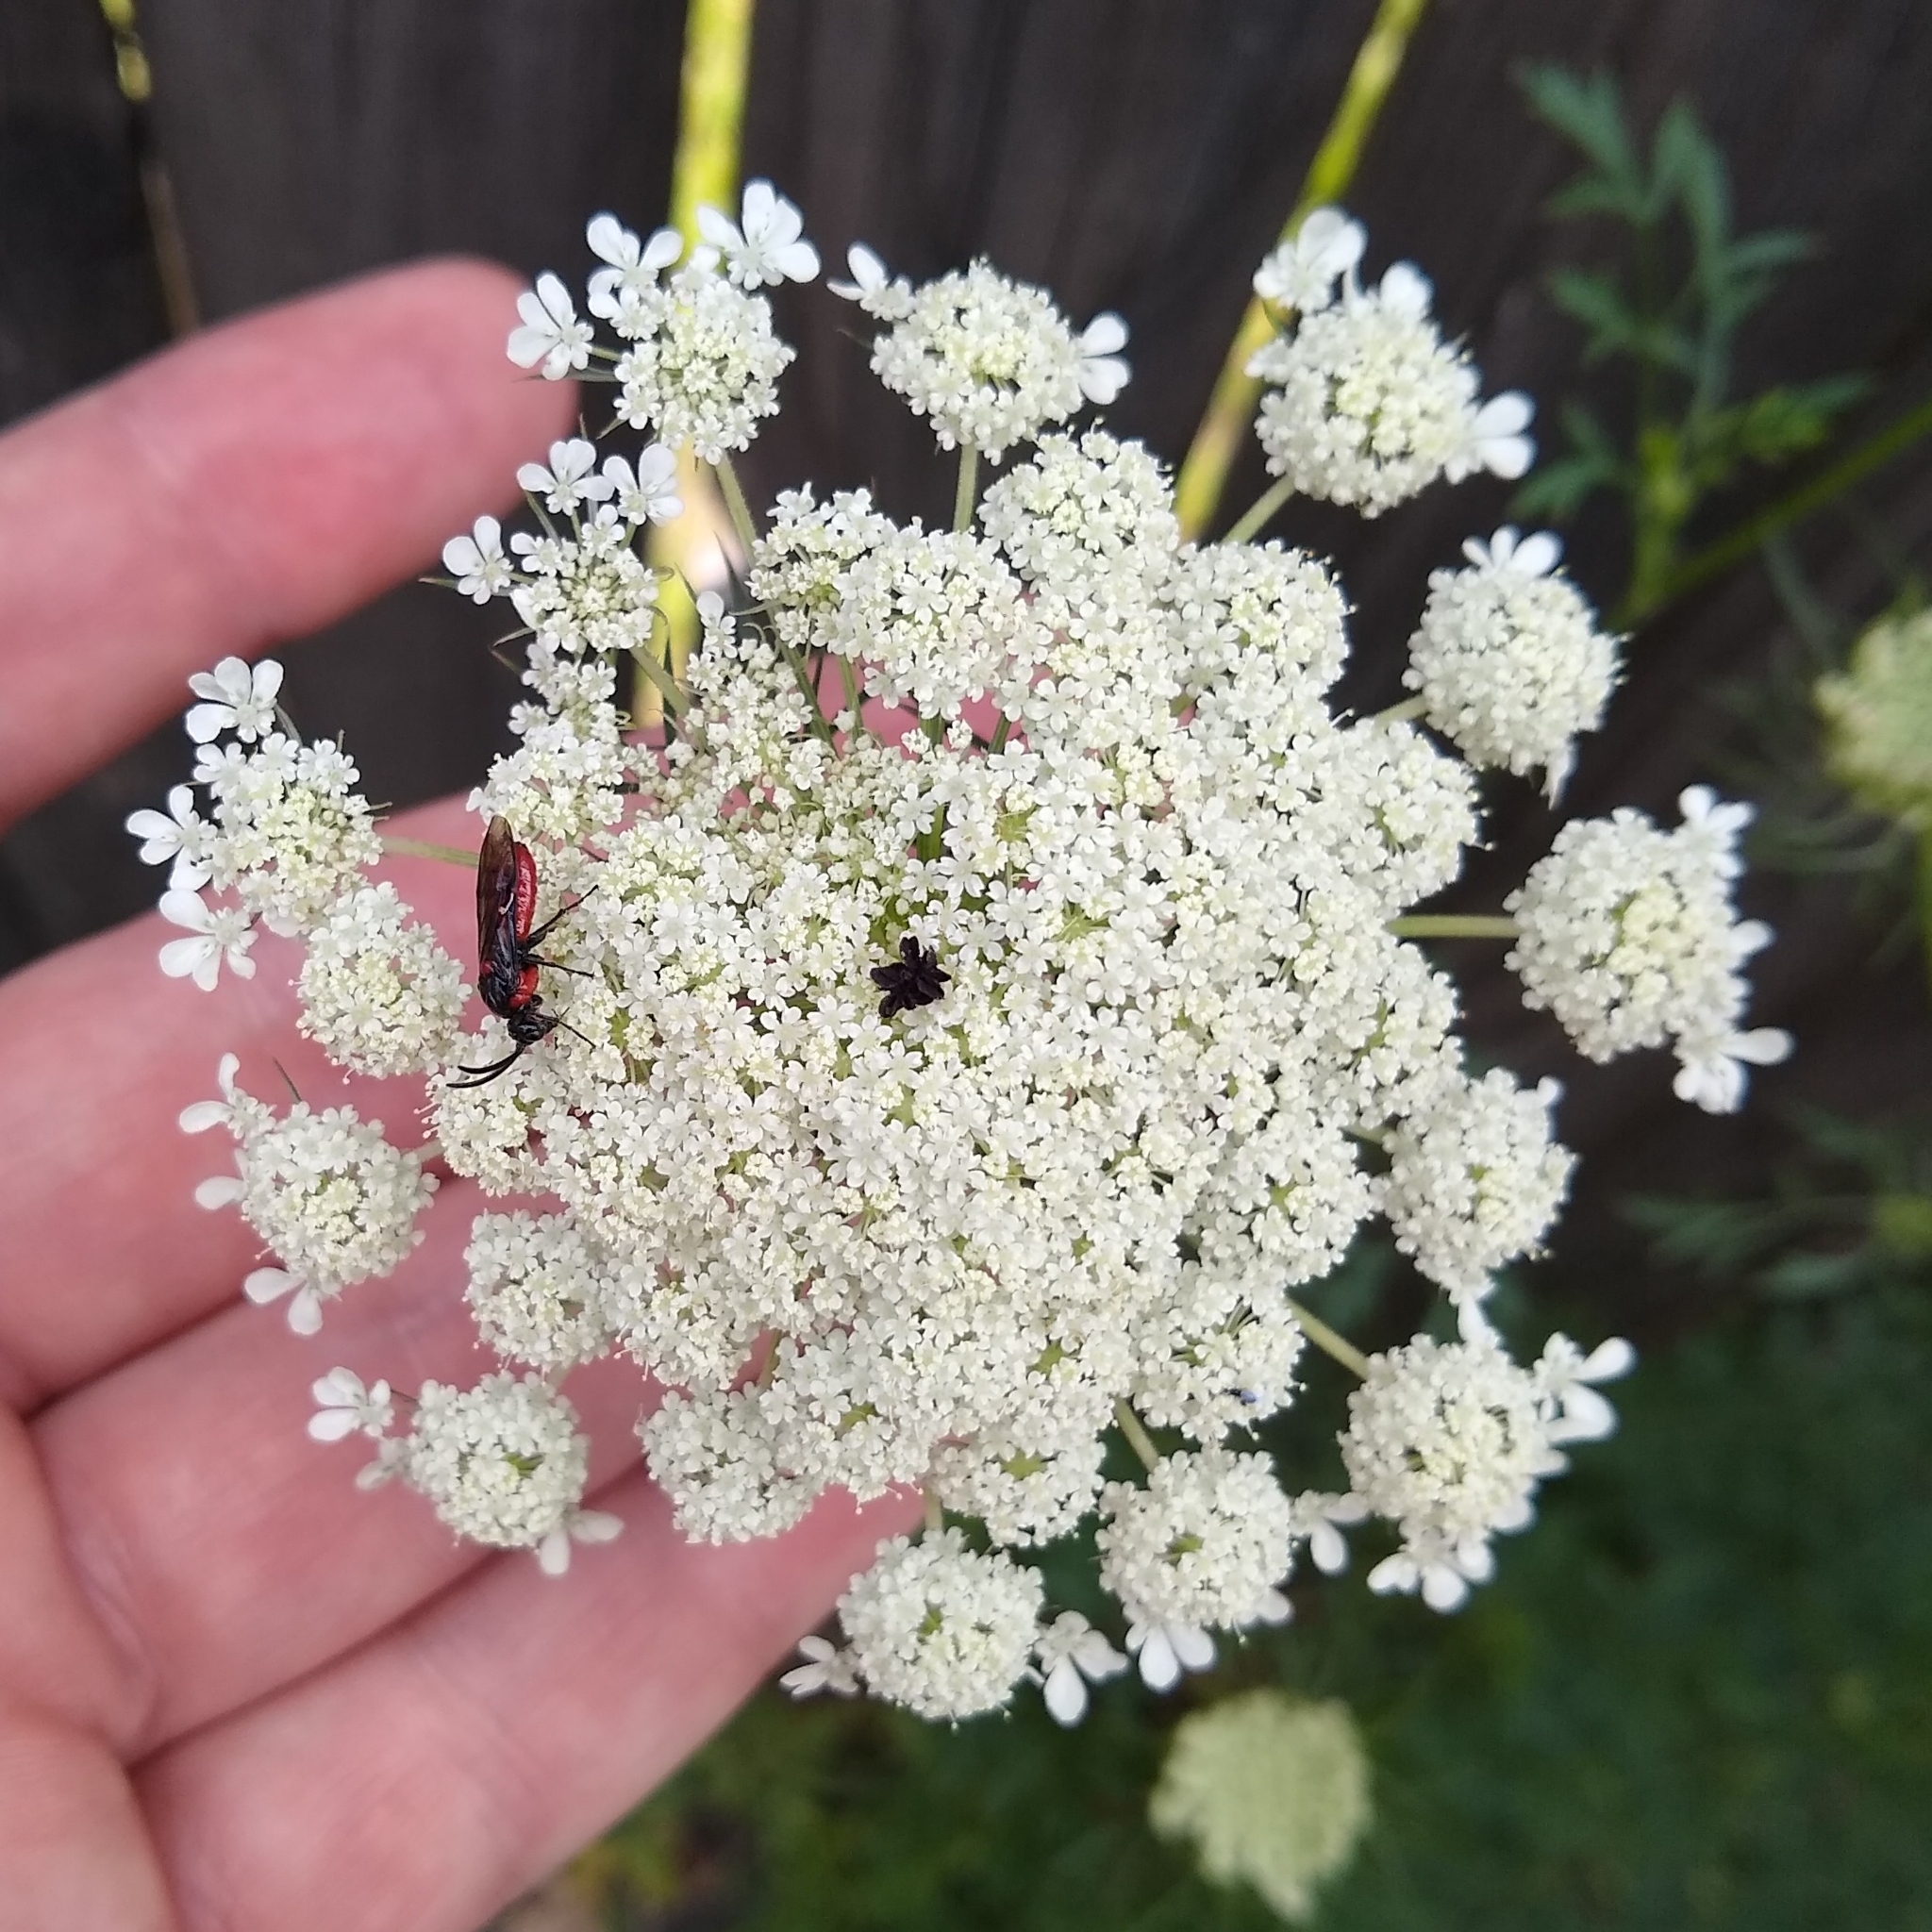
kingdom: Plantae
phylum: Tracheophyta
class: Magnoliopsida
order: Apiales
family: Apiaceae
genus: Daucus
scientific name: Daucus carota
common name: Wild carrot
